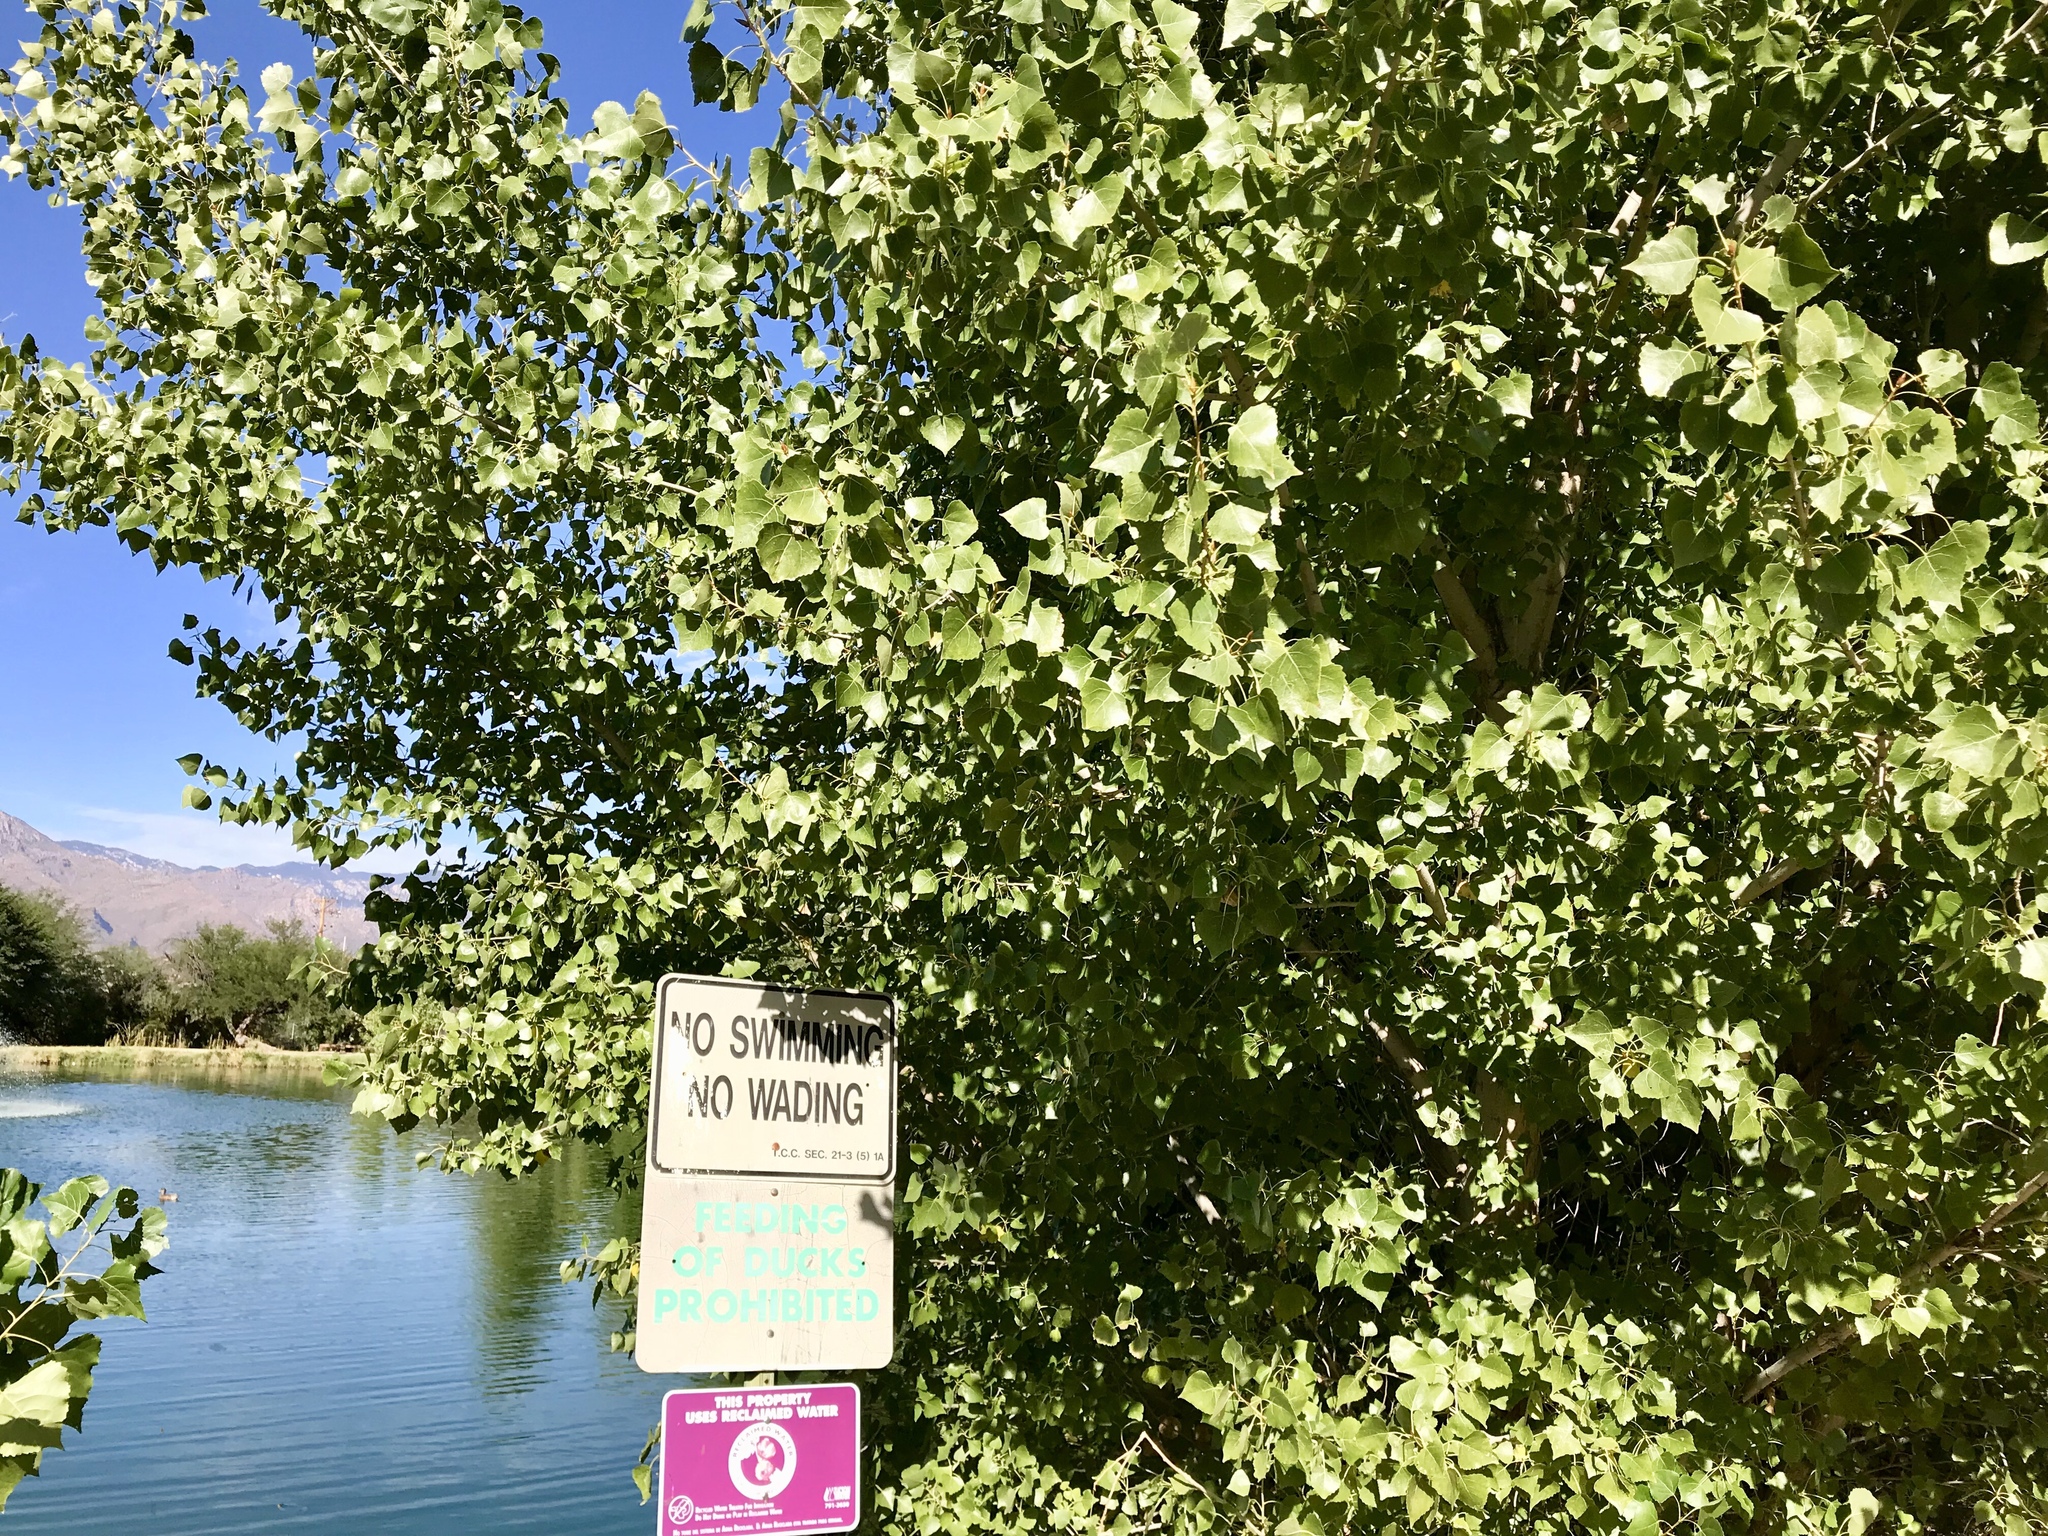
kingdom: Plantae
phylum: Tracheophyta
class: Magnoliopsida
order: Malpighiales
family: Salicaceae
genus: Populus
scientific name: Populus fremontii
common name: Fremont's cottonwood
